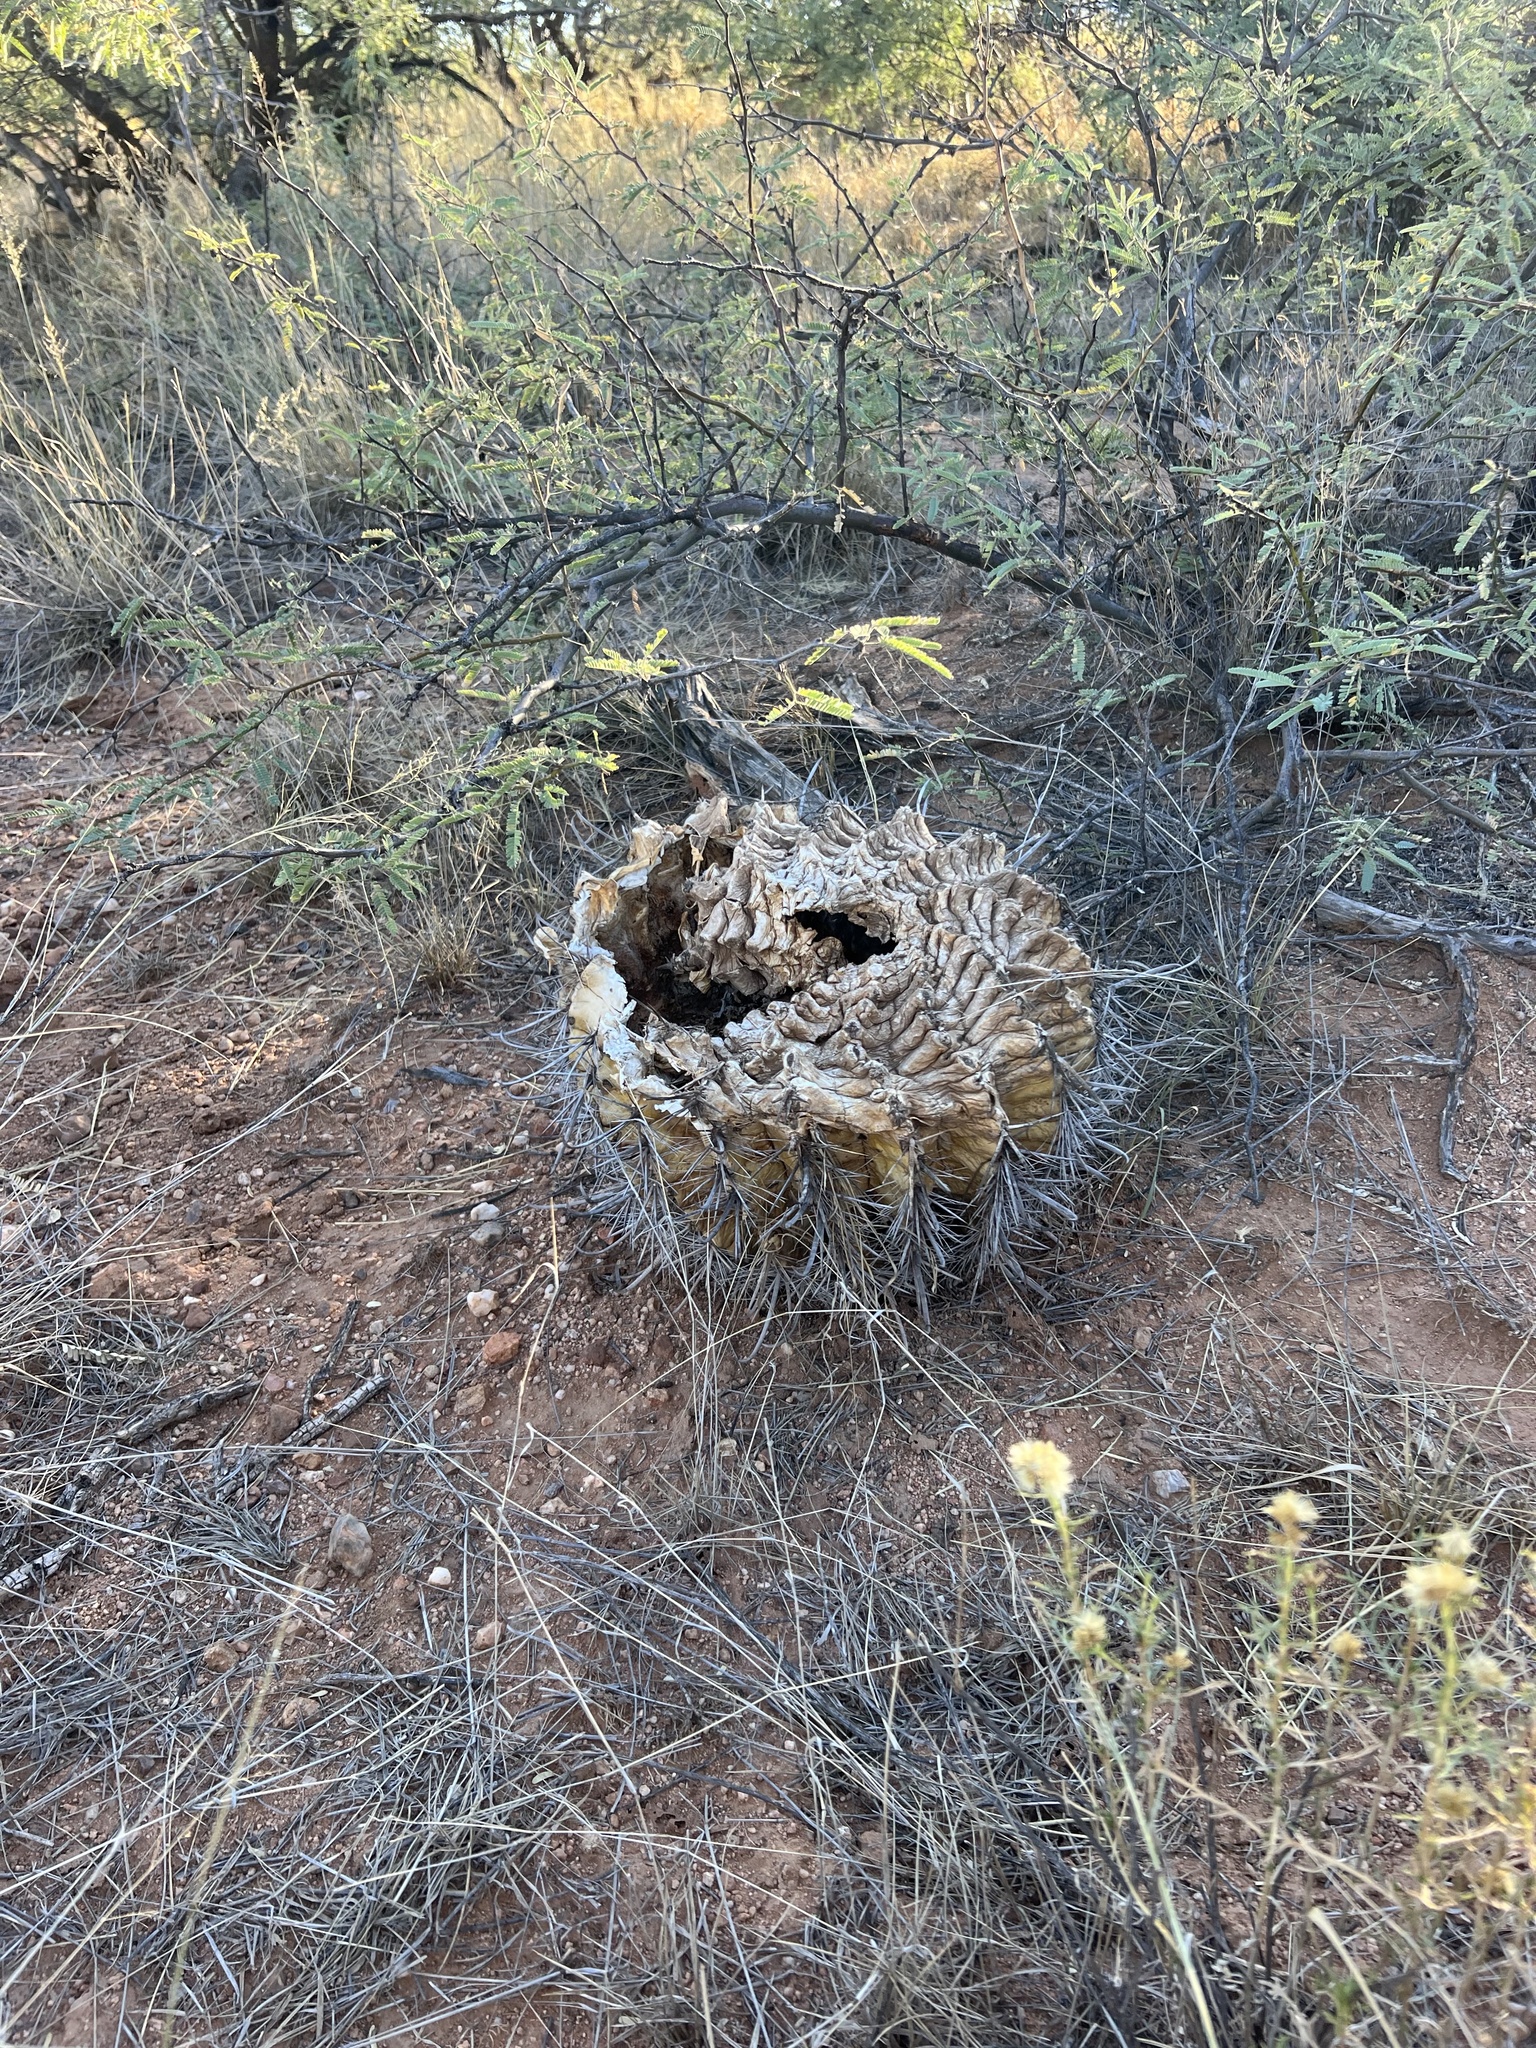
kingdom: Plantae
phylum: Tracheophyta
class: Magnoliopsida
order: Caryophyllales
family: Cactaceae
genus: Ferocactus
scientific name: Ferocactus wislizeni
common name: Candy barrel cactus
